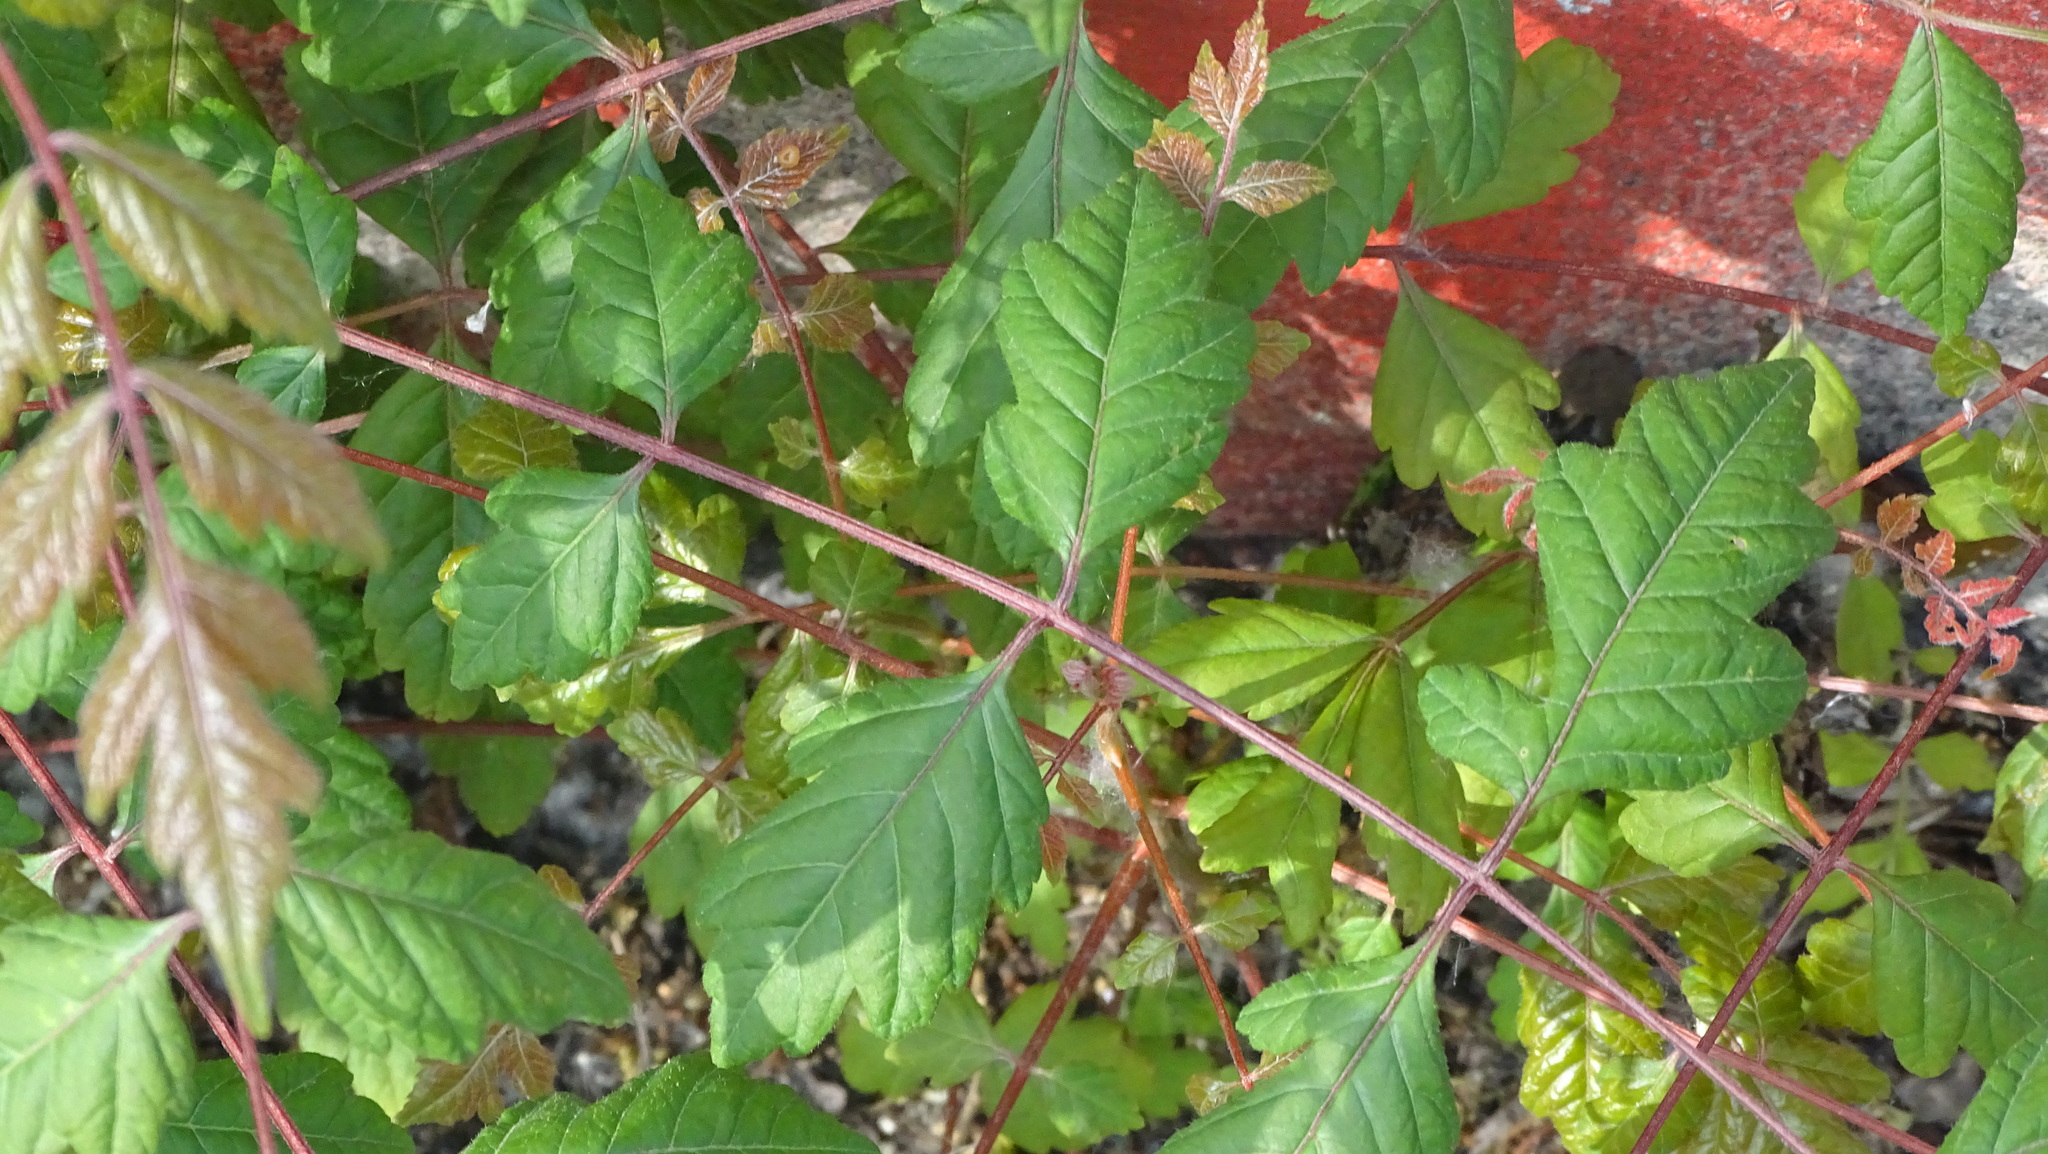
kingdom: Plantae
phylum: Tracheophyta
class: Magnoliopsida
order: Sapindales
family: Sapindaceae
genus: Koelreuteria
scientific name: Koelreuteria paniculata
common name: Pride-of-india
